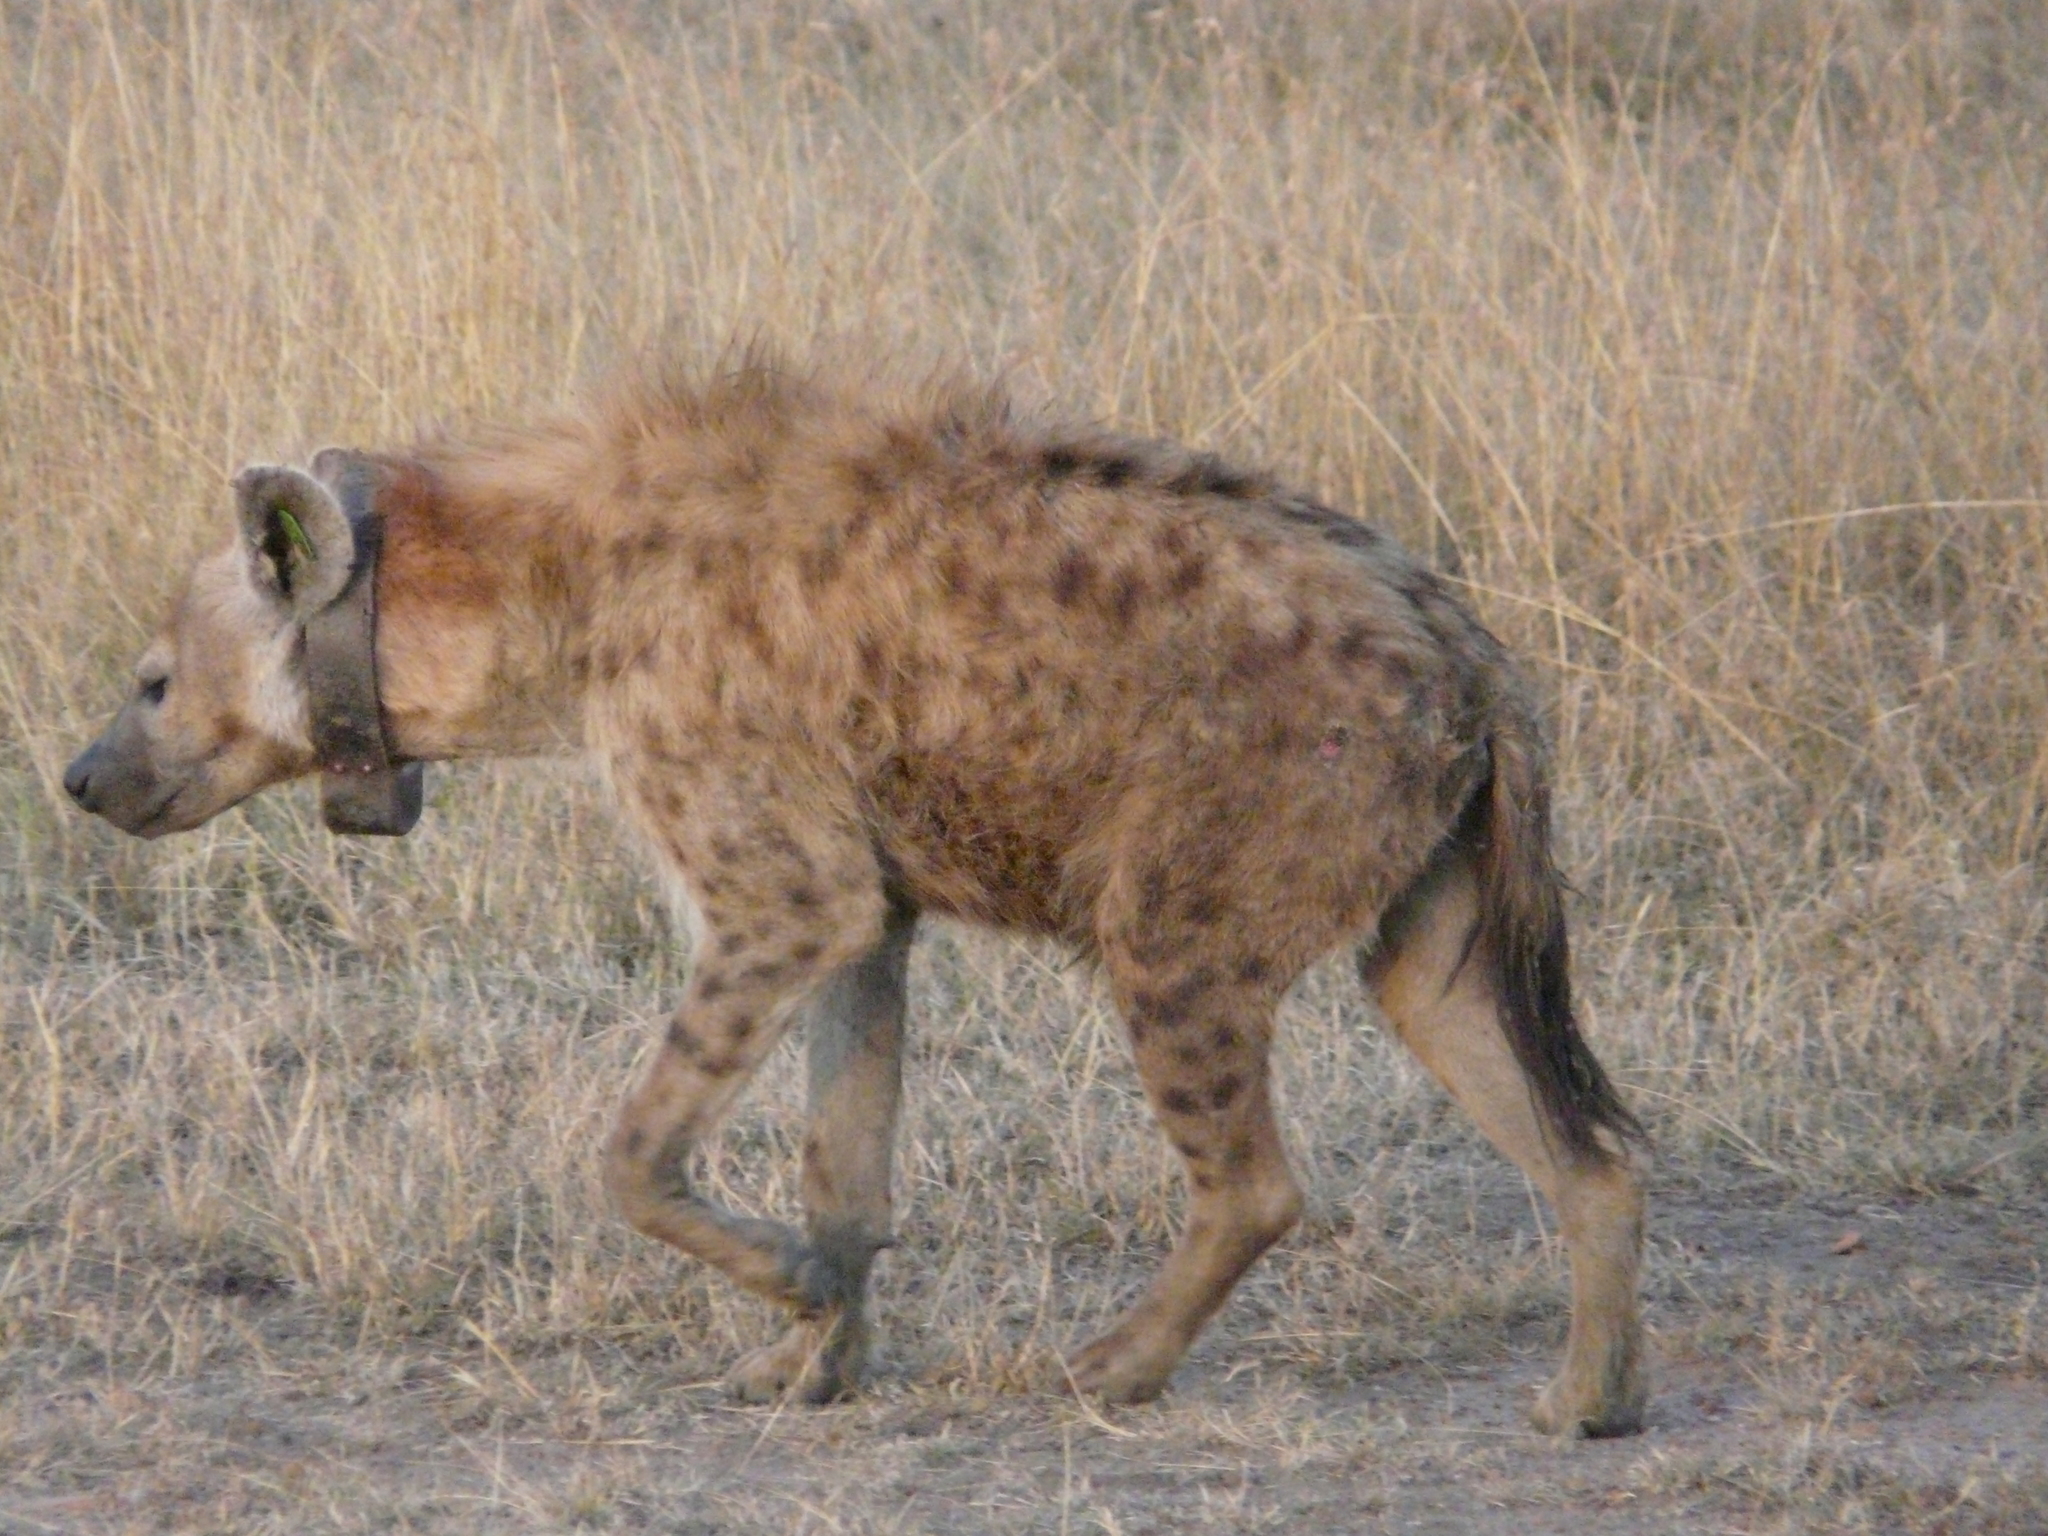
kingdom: Animalia
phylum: Chordata
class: Mammalia
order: Carnivora
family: Hyaenidae
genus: Crocuta
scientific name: Crocuta crocuta
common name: Spotted hyaena
